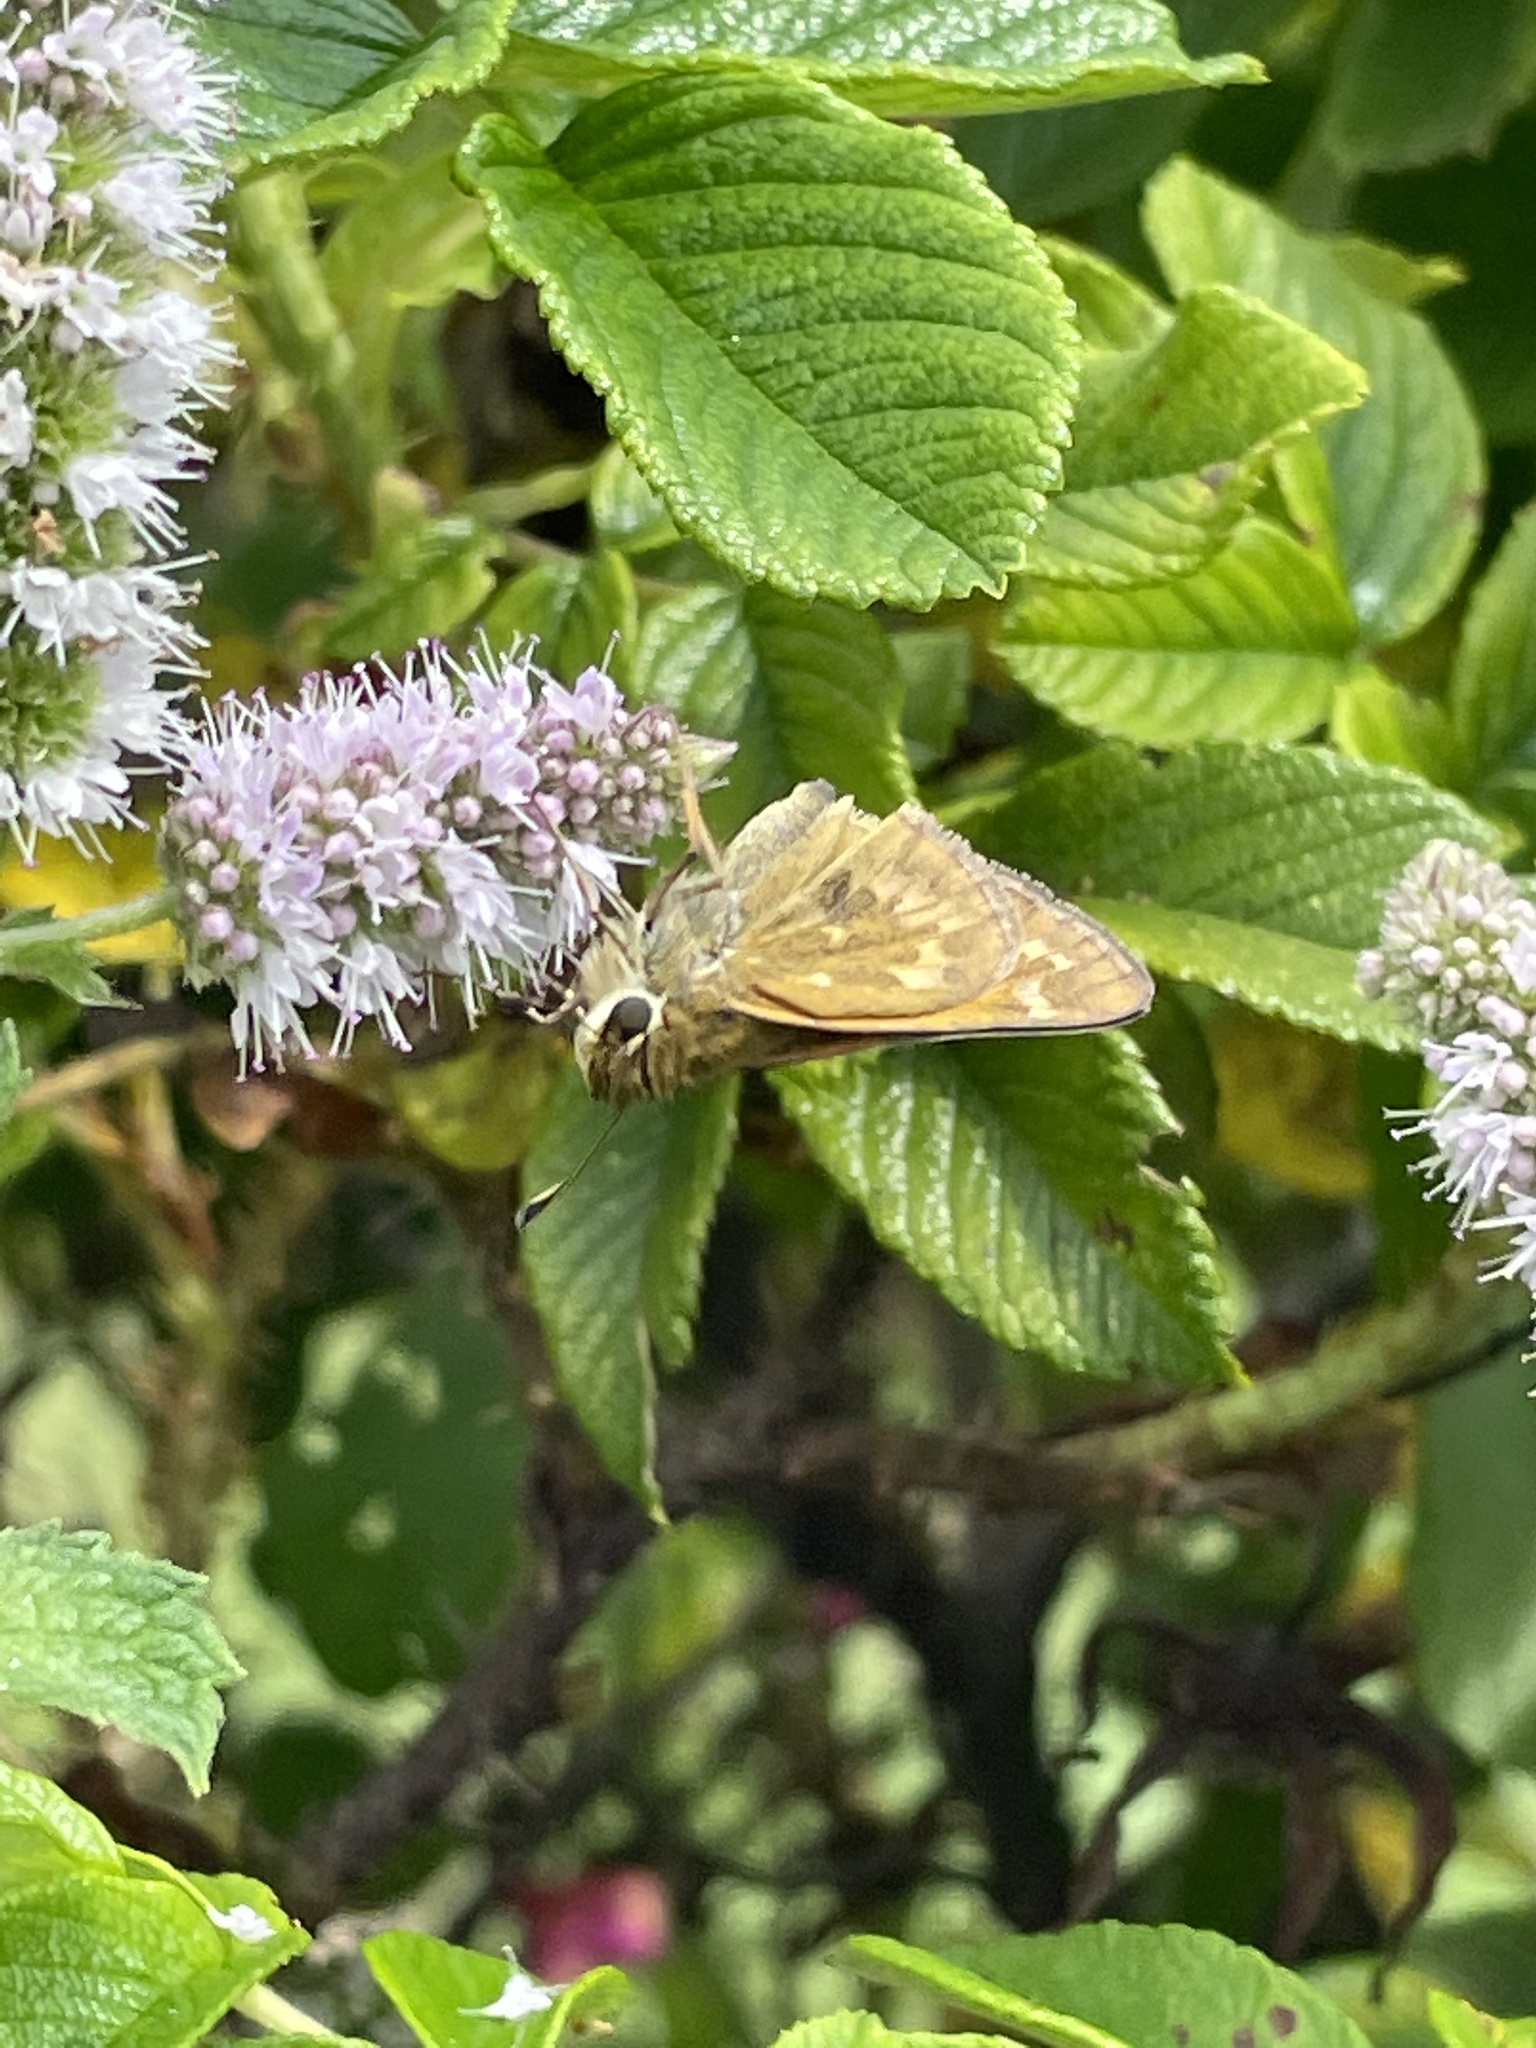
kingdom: Animalia
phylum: Arthropoda
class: Insecta
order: Lepidoptera
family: Hesperiidae
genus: Atalopedes
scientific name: Atalopedes
